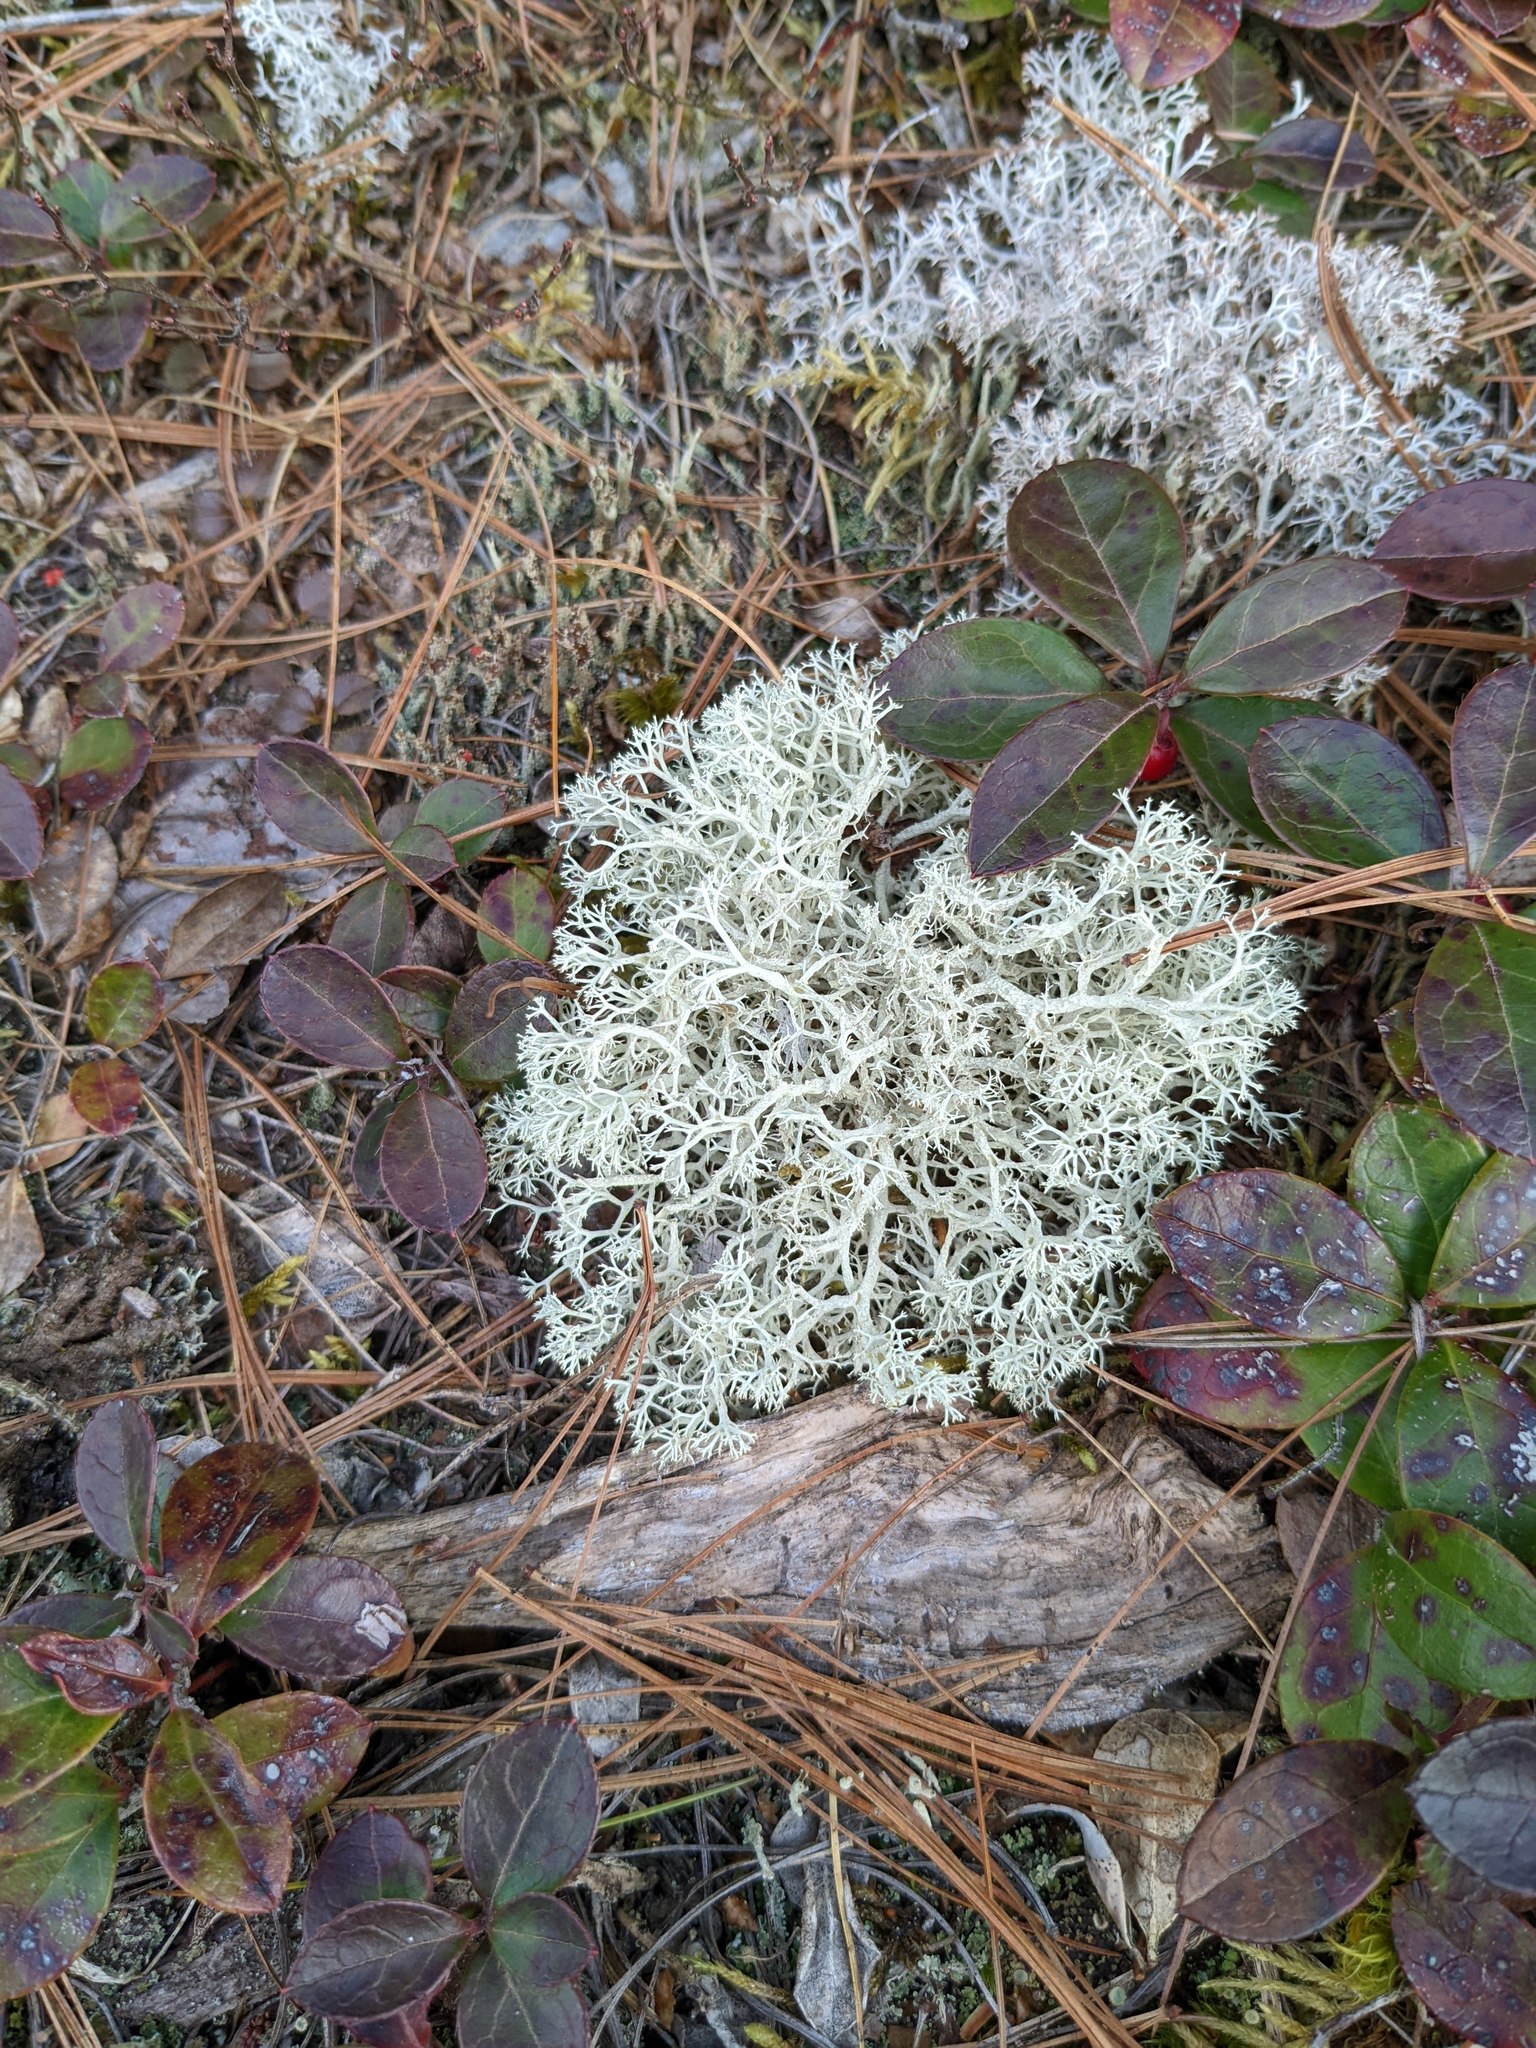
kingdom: Plantae
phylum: Tracheophyta
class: Magnoliopsida
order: Ericales
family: Ericaceae
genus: Gaultheria
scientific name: Gaultheria procumbens
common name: Checkerberry
